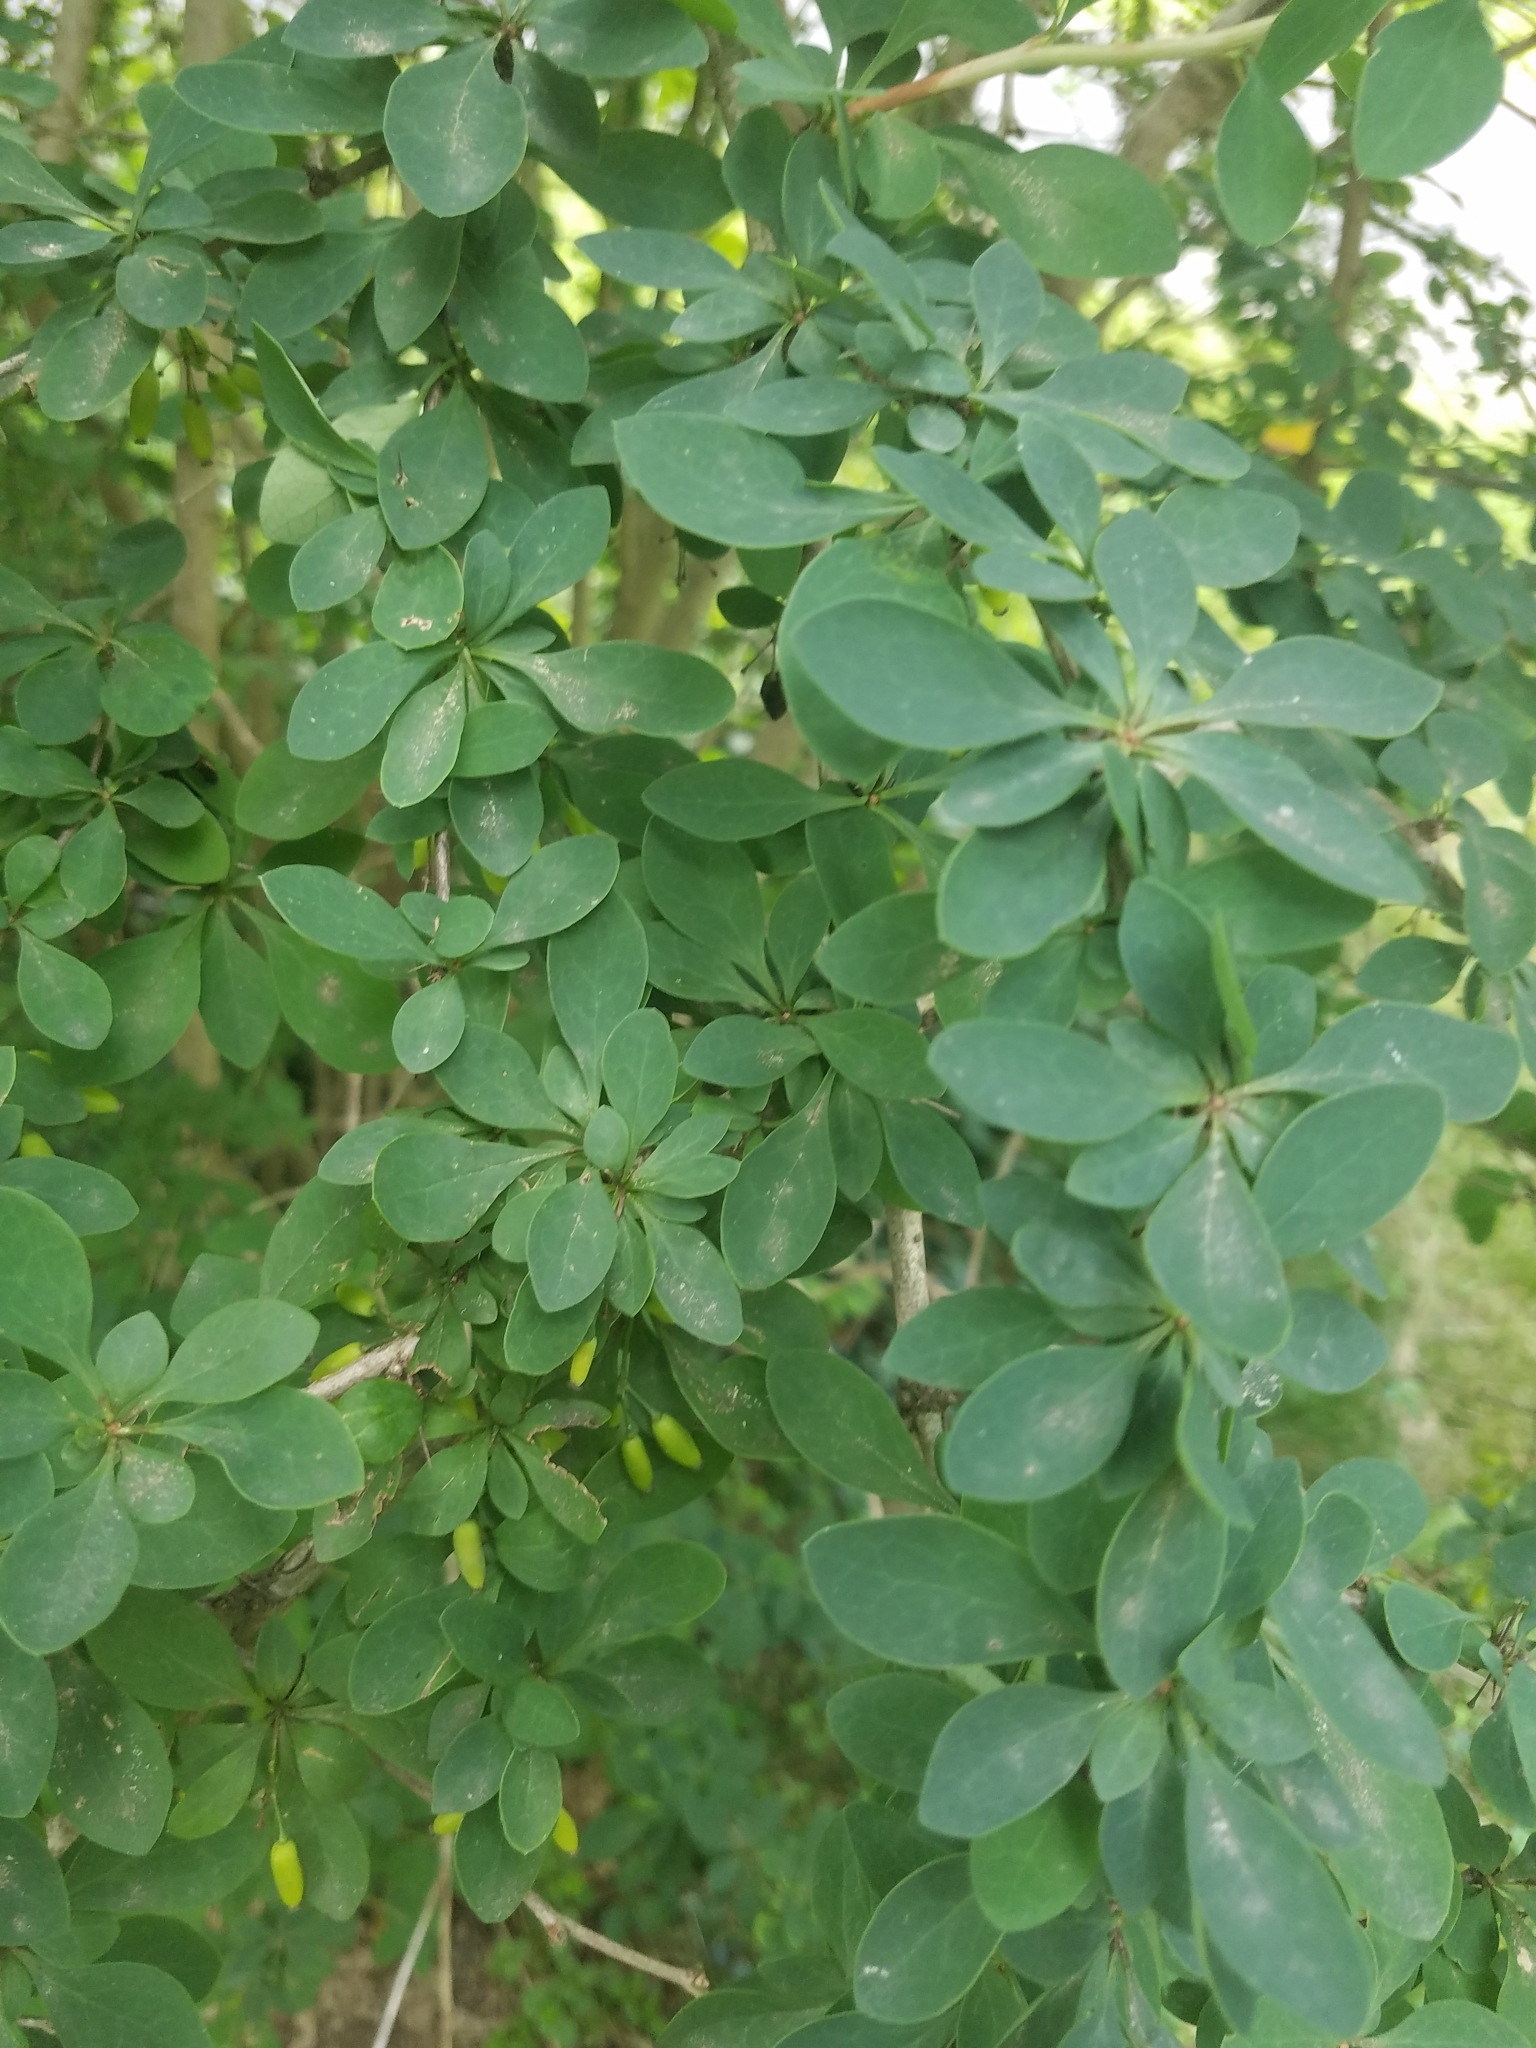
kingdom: Plantae
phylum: Tracheophyta
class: Magnoliopsida
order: Ranunculales
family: Berberidaceae
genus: Berberis
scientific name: Berberis ottawensis
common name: Ottawa barberry
